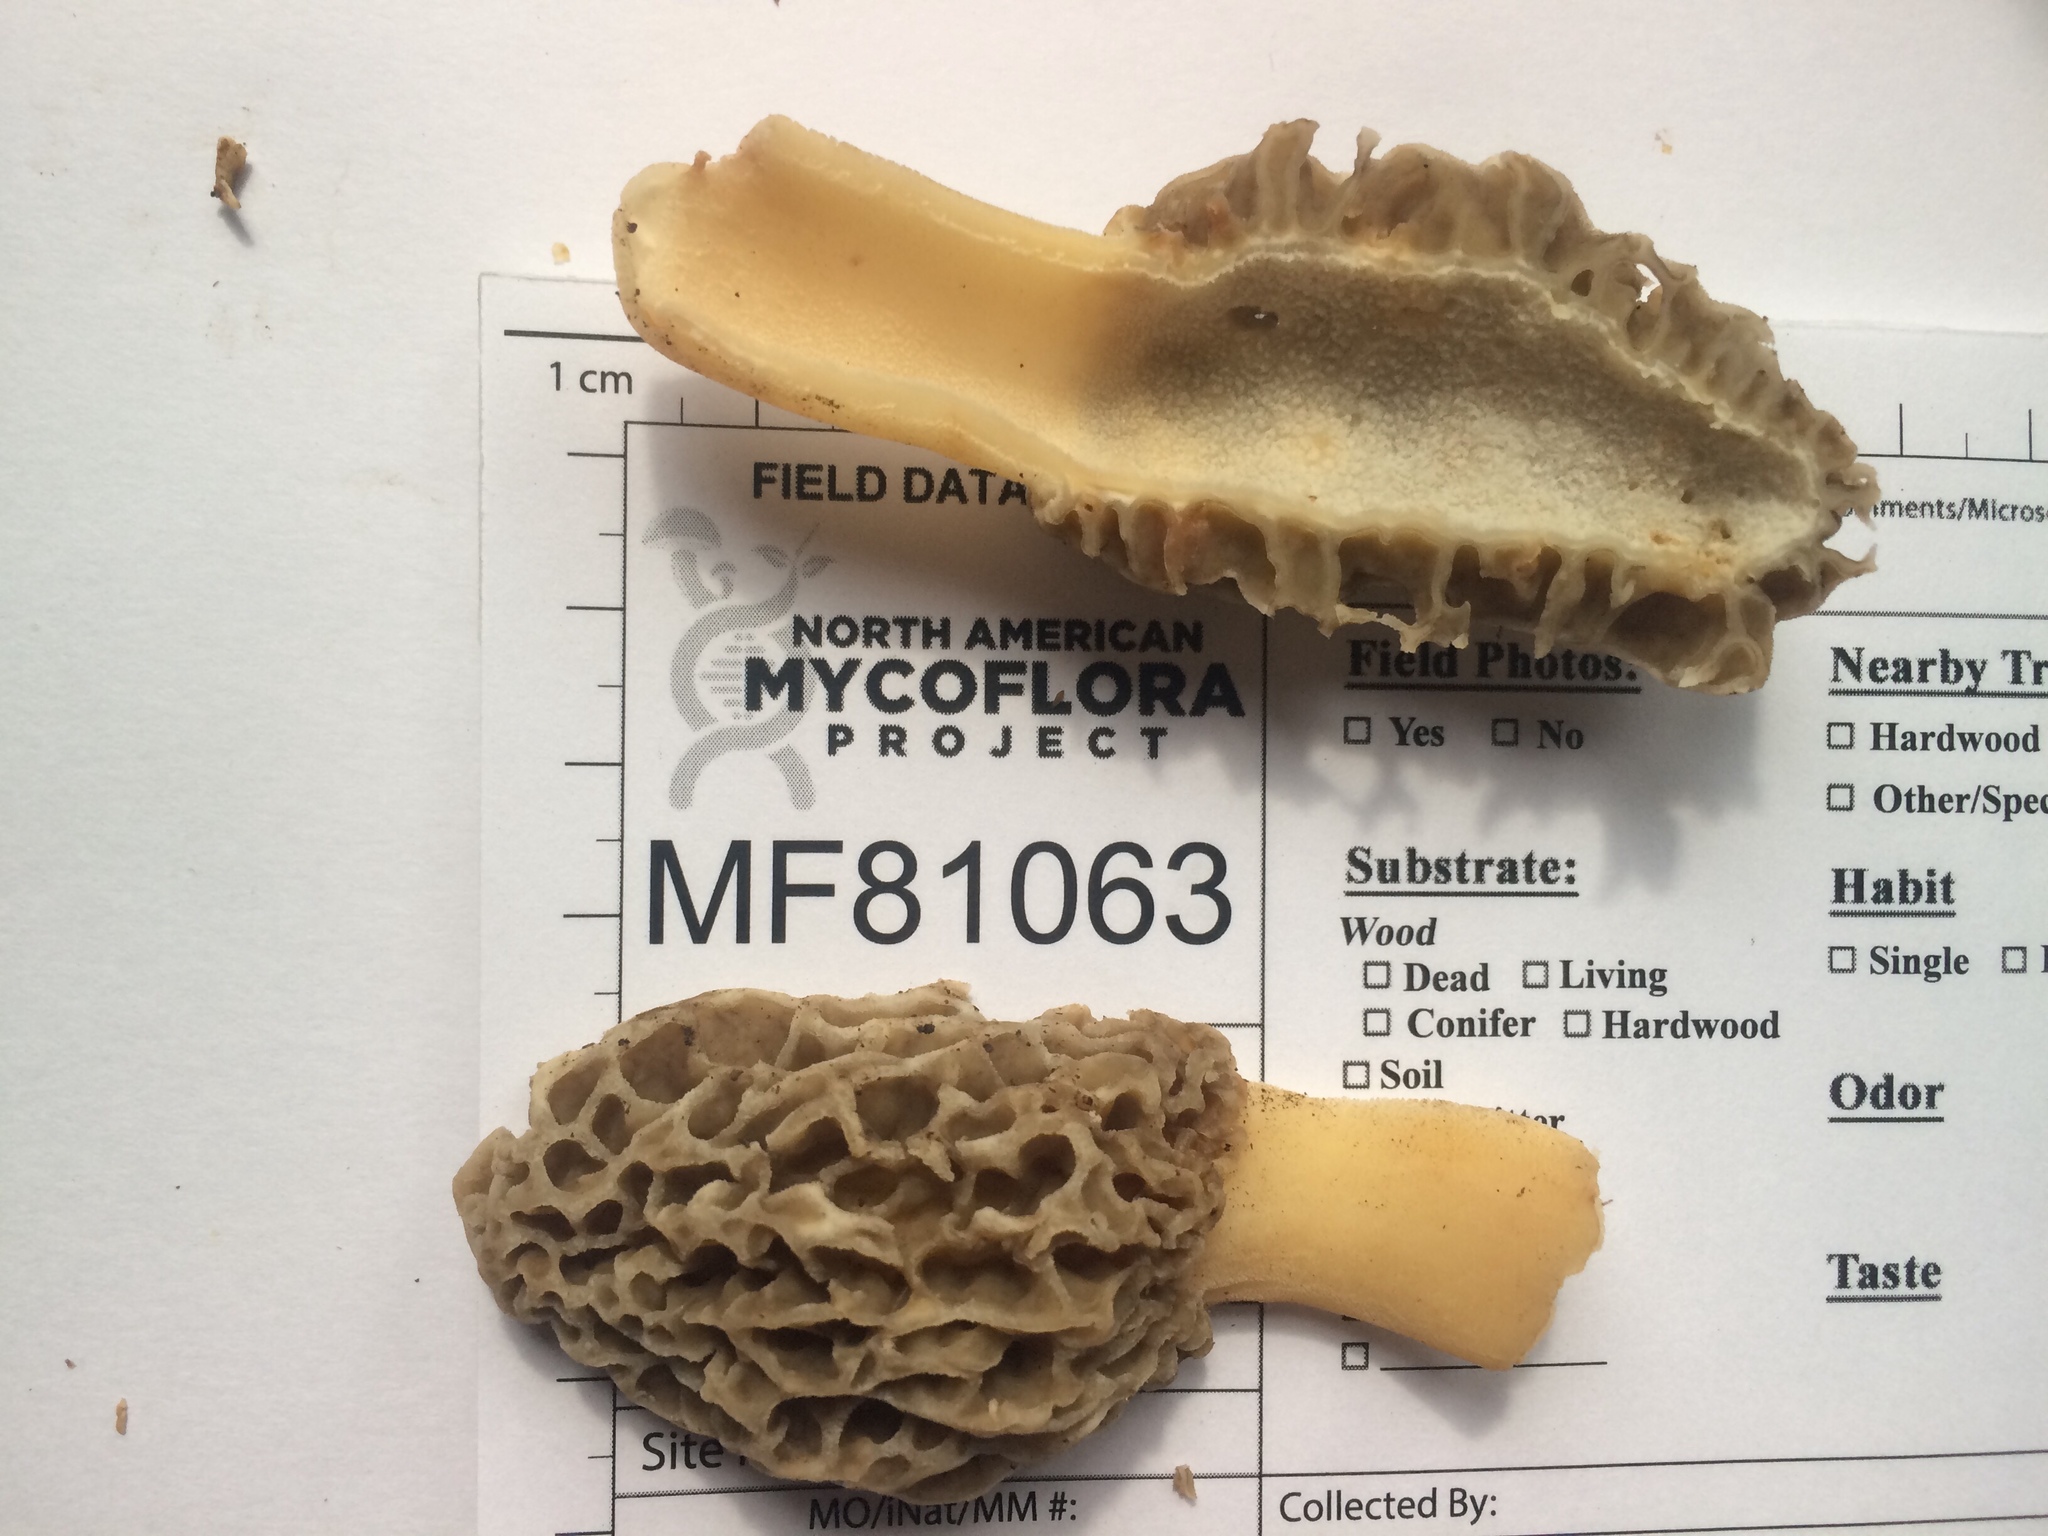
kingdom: Fungi
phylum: Ascomycota
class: Pezizomycetes
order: Pezizales
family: Morchellaceae
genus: Morchella
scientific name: Morchella americana
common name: White morel
